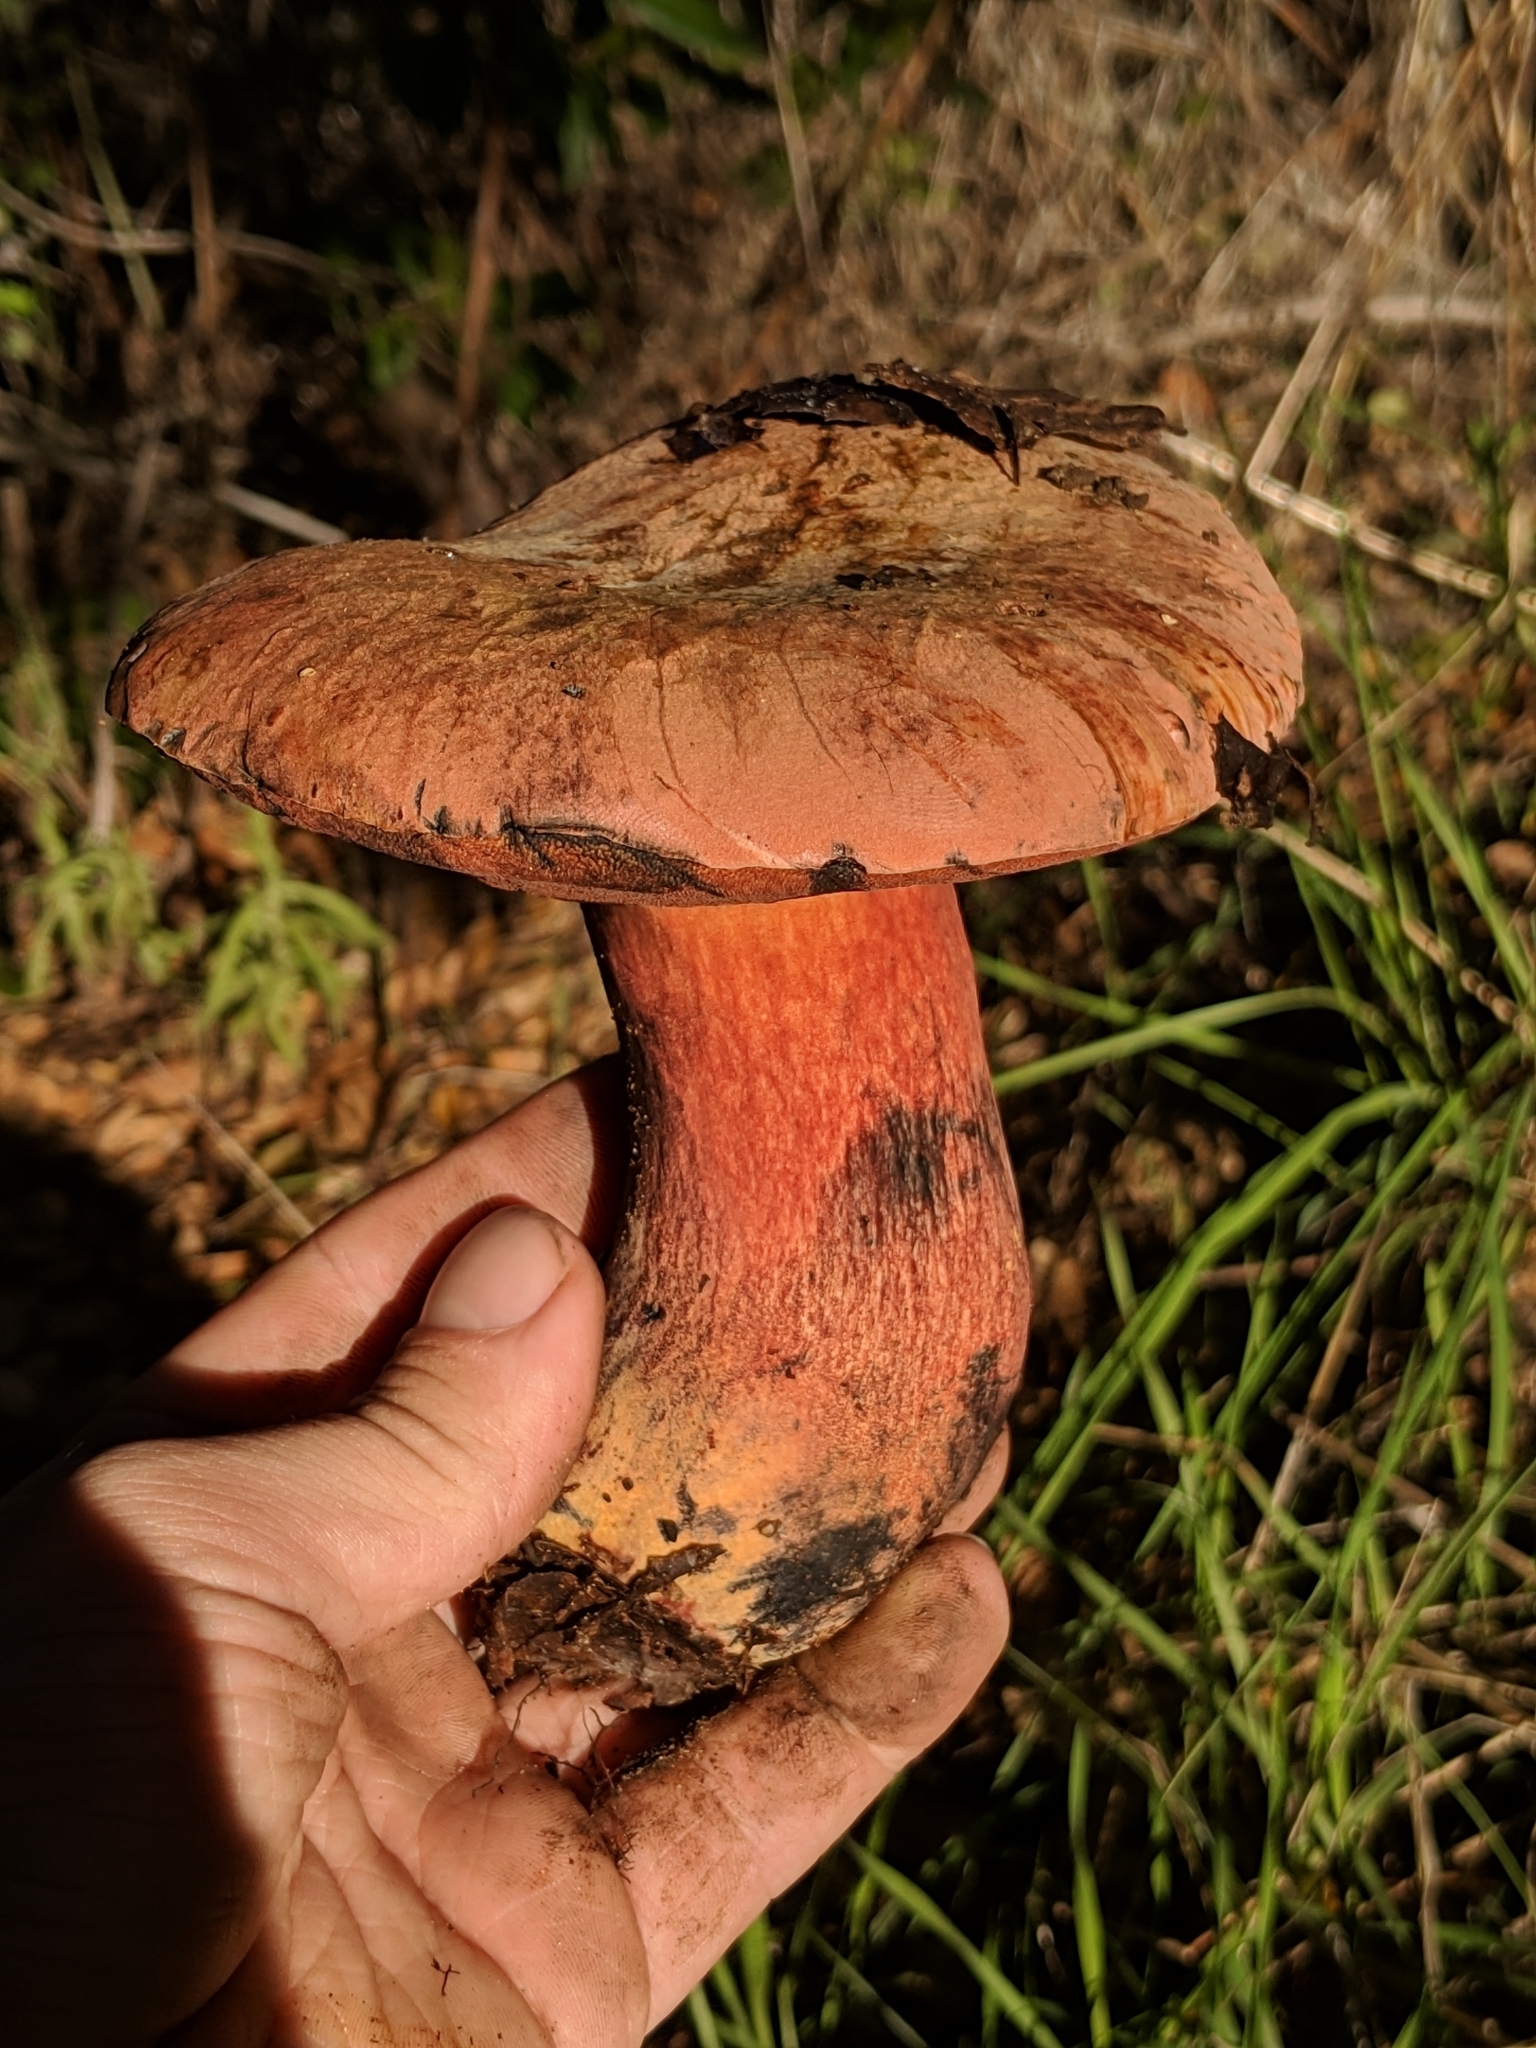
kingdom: Fungi
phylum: Basidiomycota
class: Agaricomycetes
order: Boletales
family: Boletaceae
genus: Suillellus
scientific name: Suillellus amygdalinus
